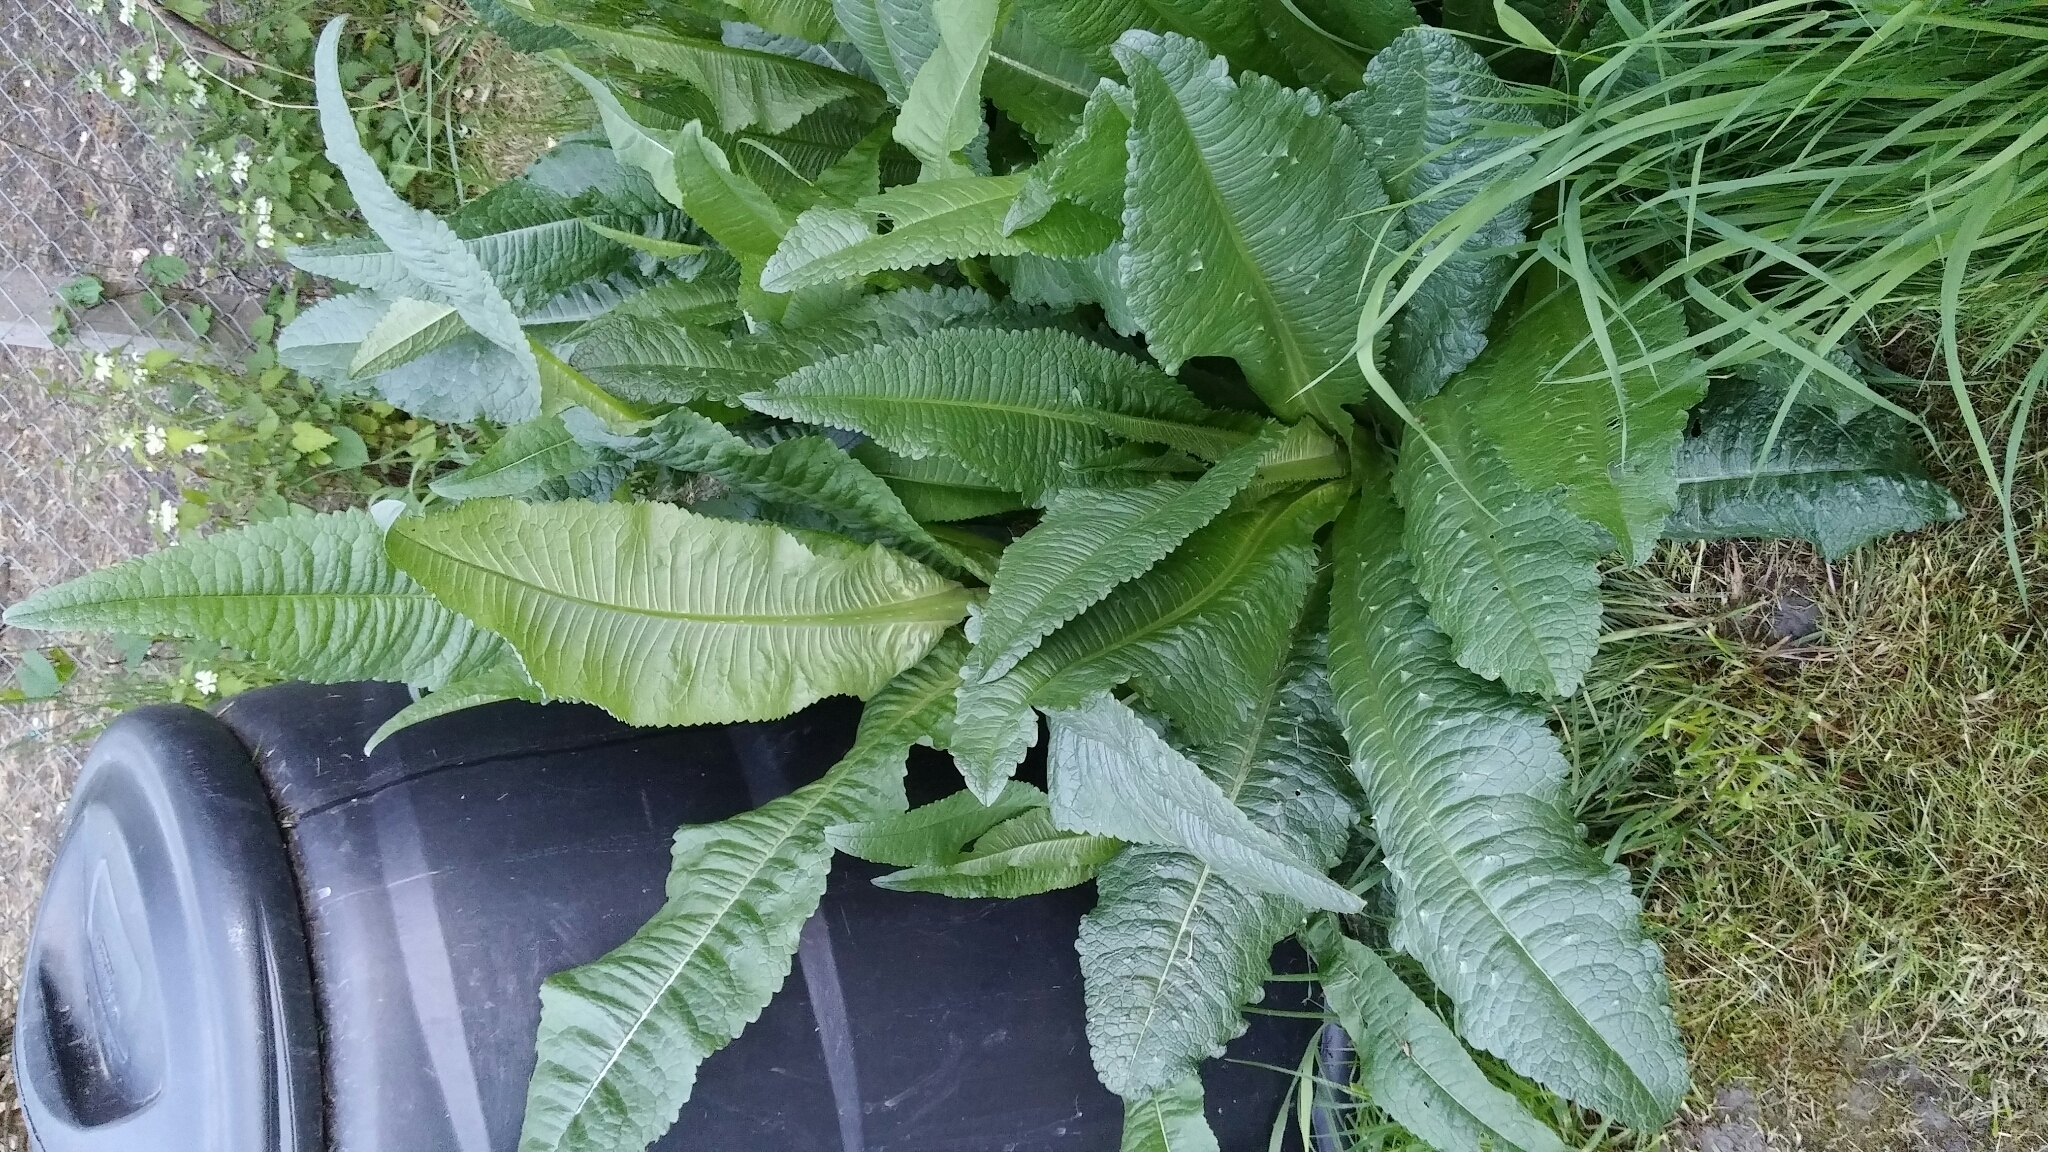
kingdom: Plantae
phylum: Tracheophyta
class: Magnoliopsida
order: Dipsacales
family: Caprifoliaceae
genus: Dipsacus
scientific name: Dipsacus fullonum
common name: Teasel
